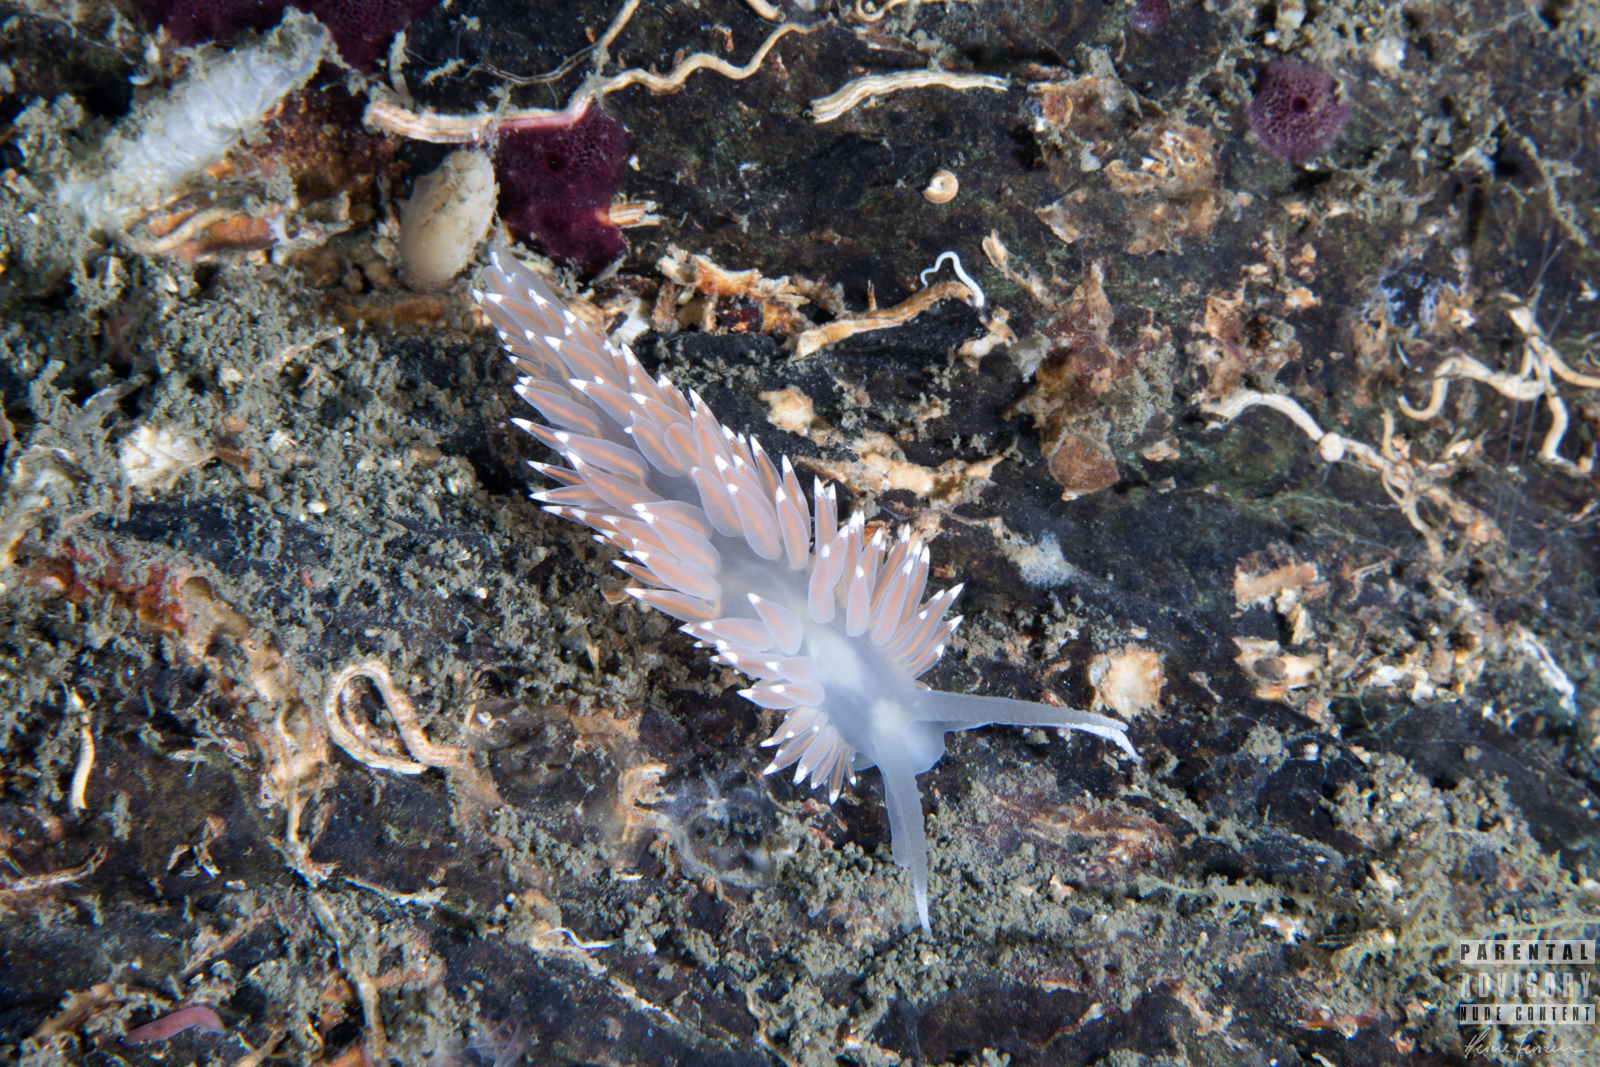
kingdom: Animalia
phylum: Mollusca
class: Gastropoda
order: Nudibranchia
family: Coryphellidae
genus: Coryphella
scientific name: Coryphella browni
